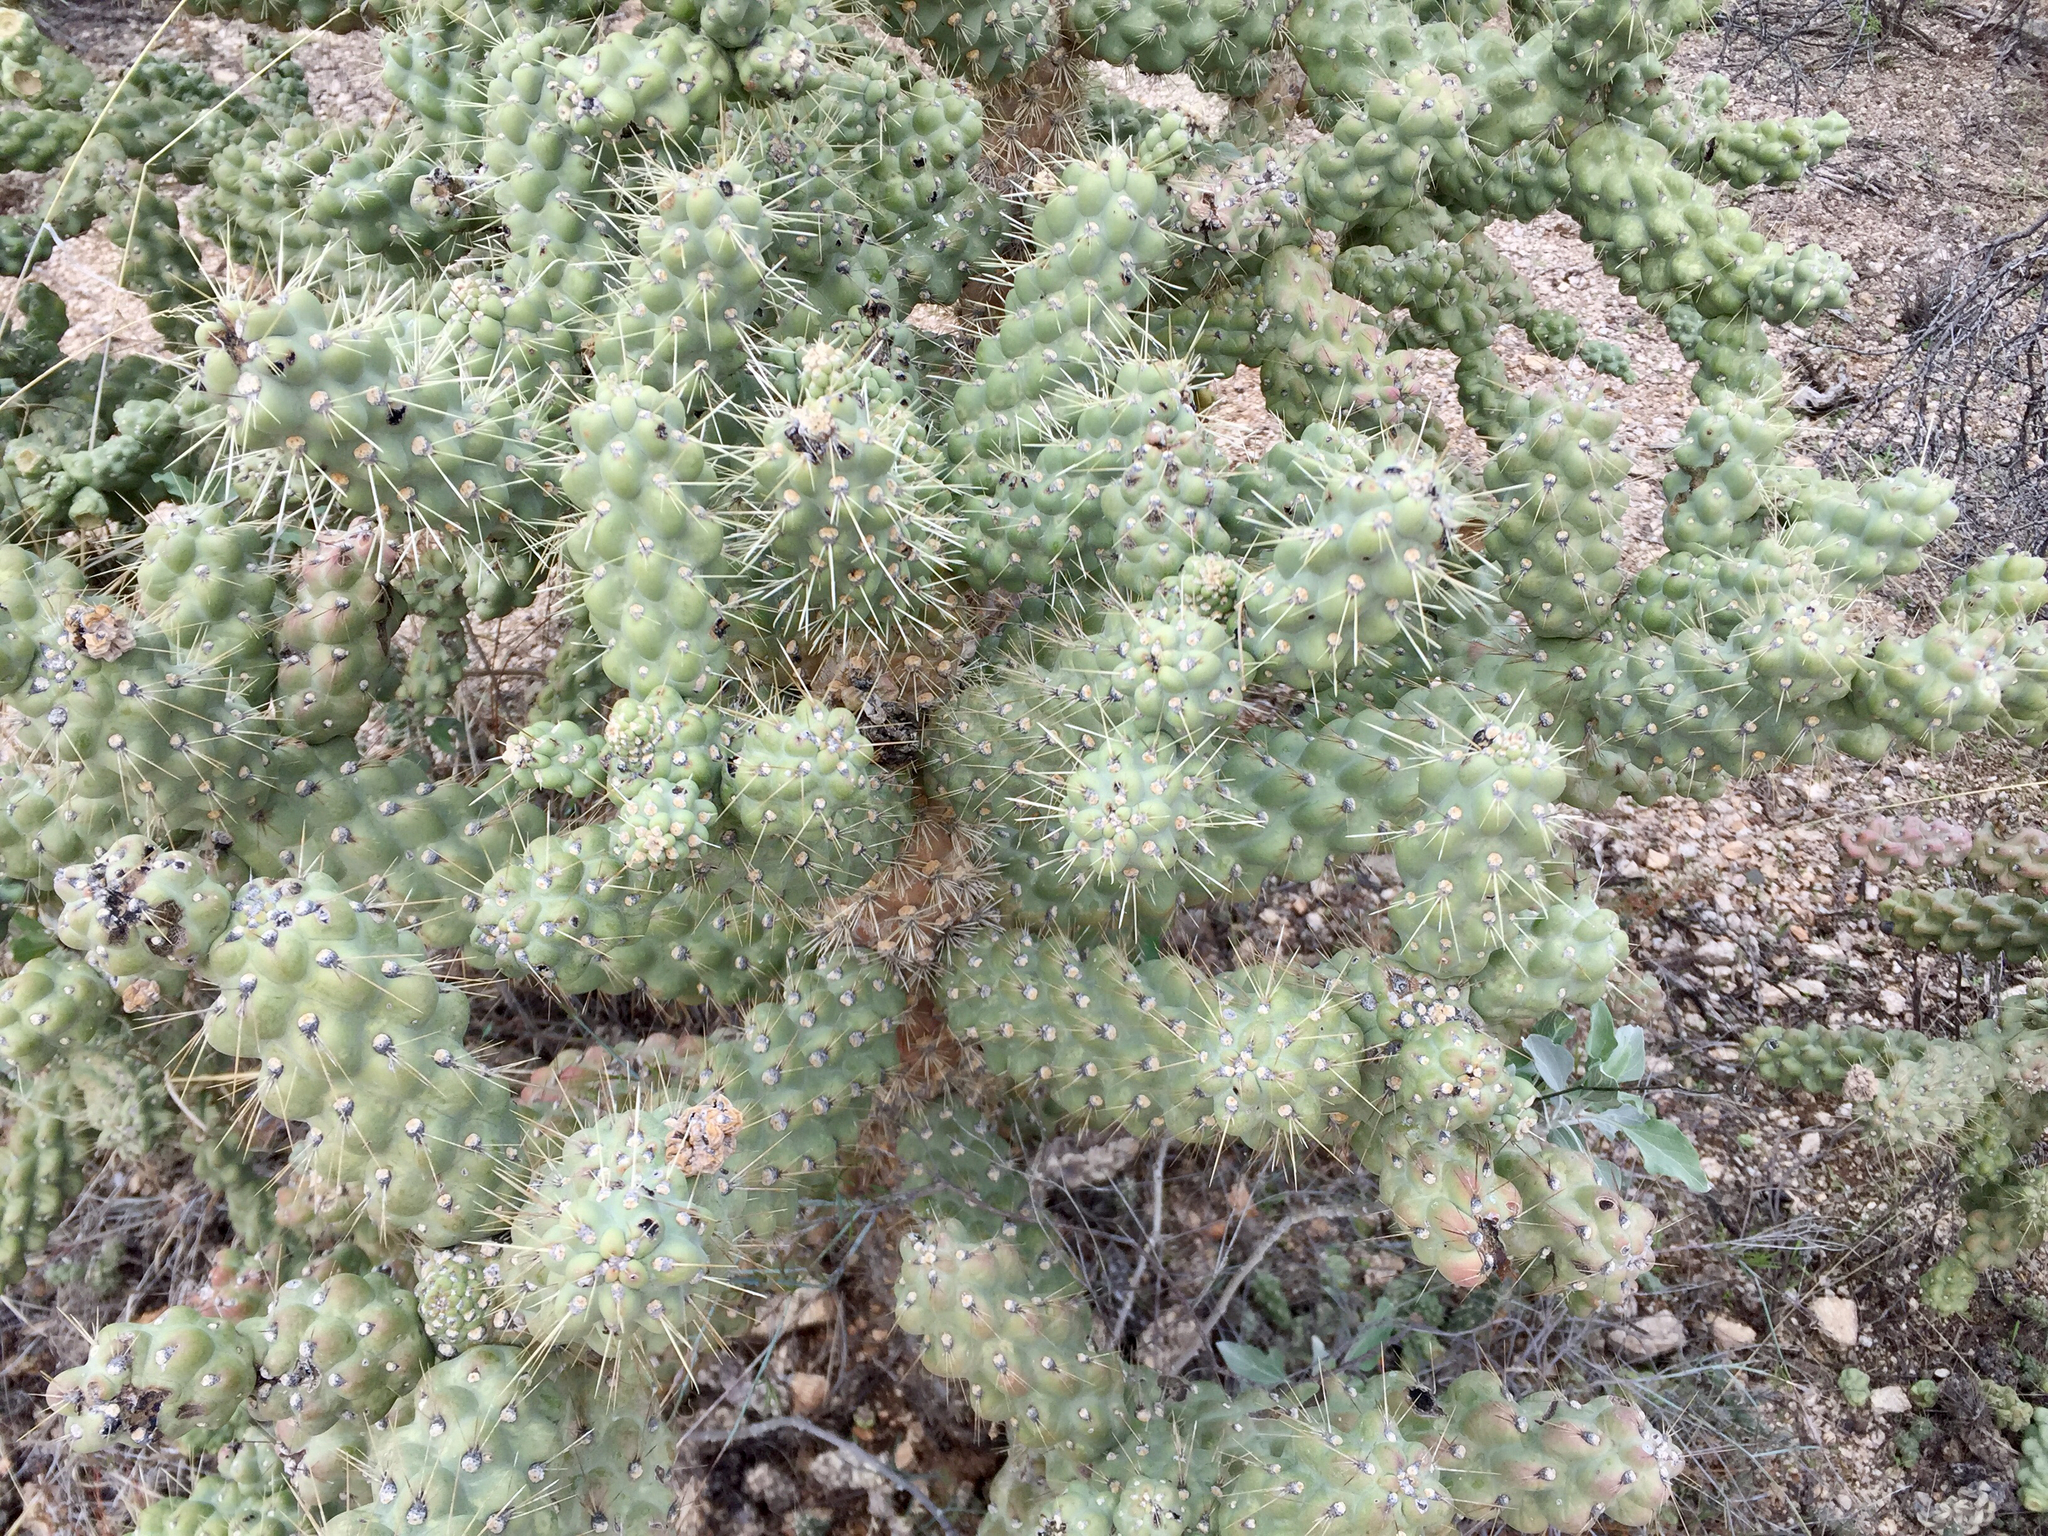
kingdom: Plantae
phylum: Tracheophyta
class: Magnoliopsida
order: Caryophyllales
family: Cactaceae
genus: Cylindropuntia
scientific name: Cylindropuntia fulgida
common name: Jumping cholla
